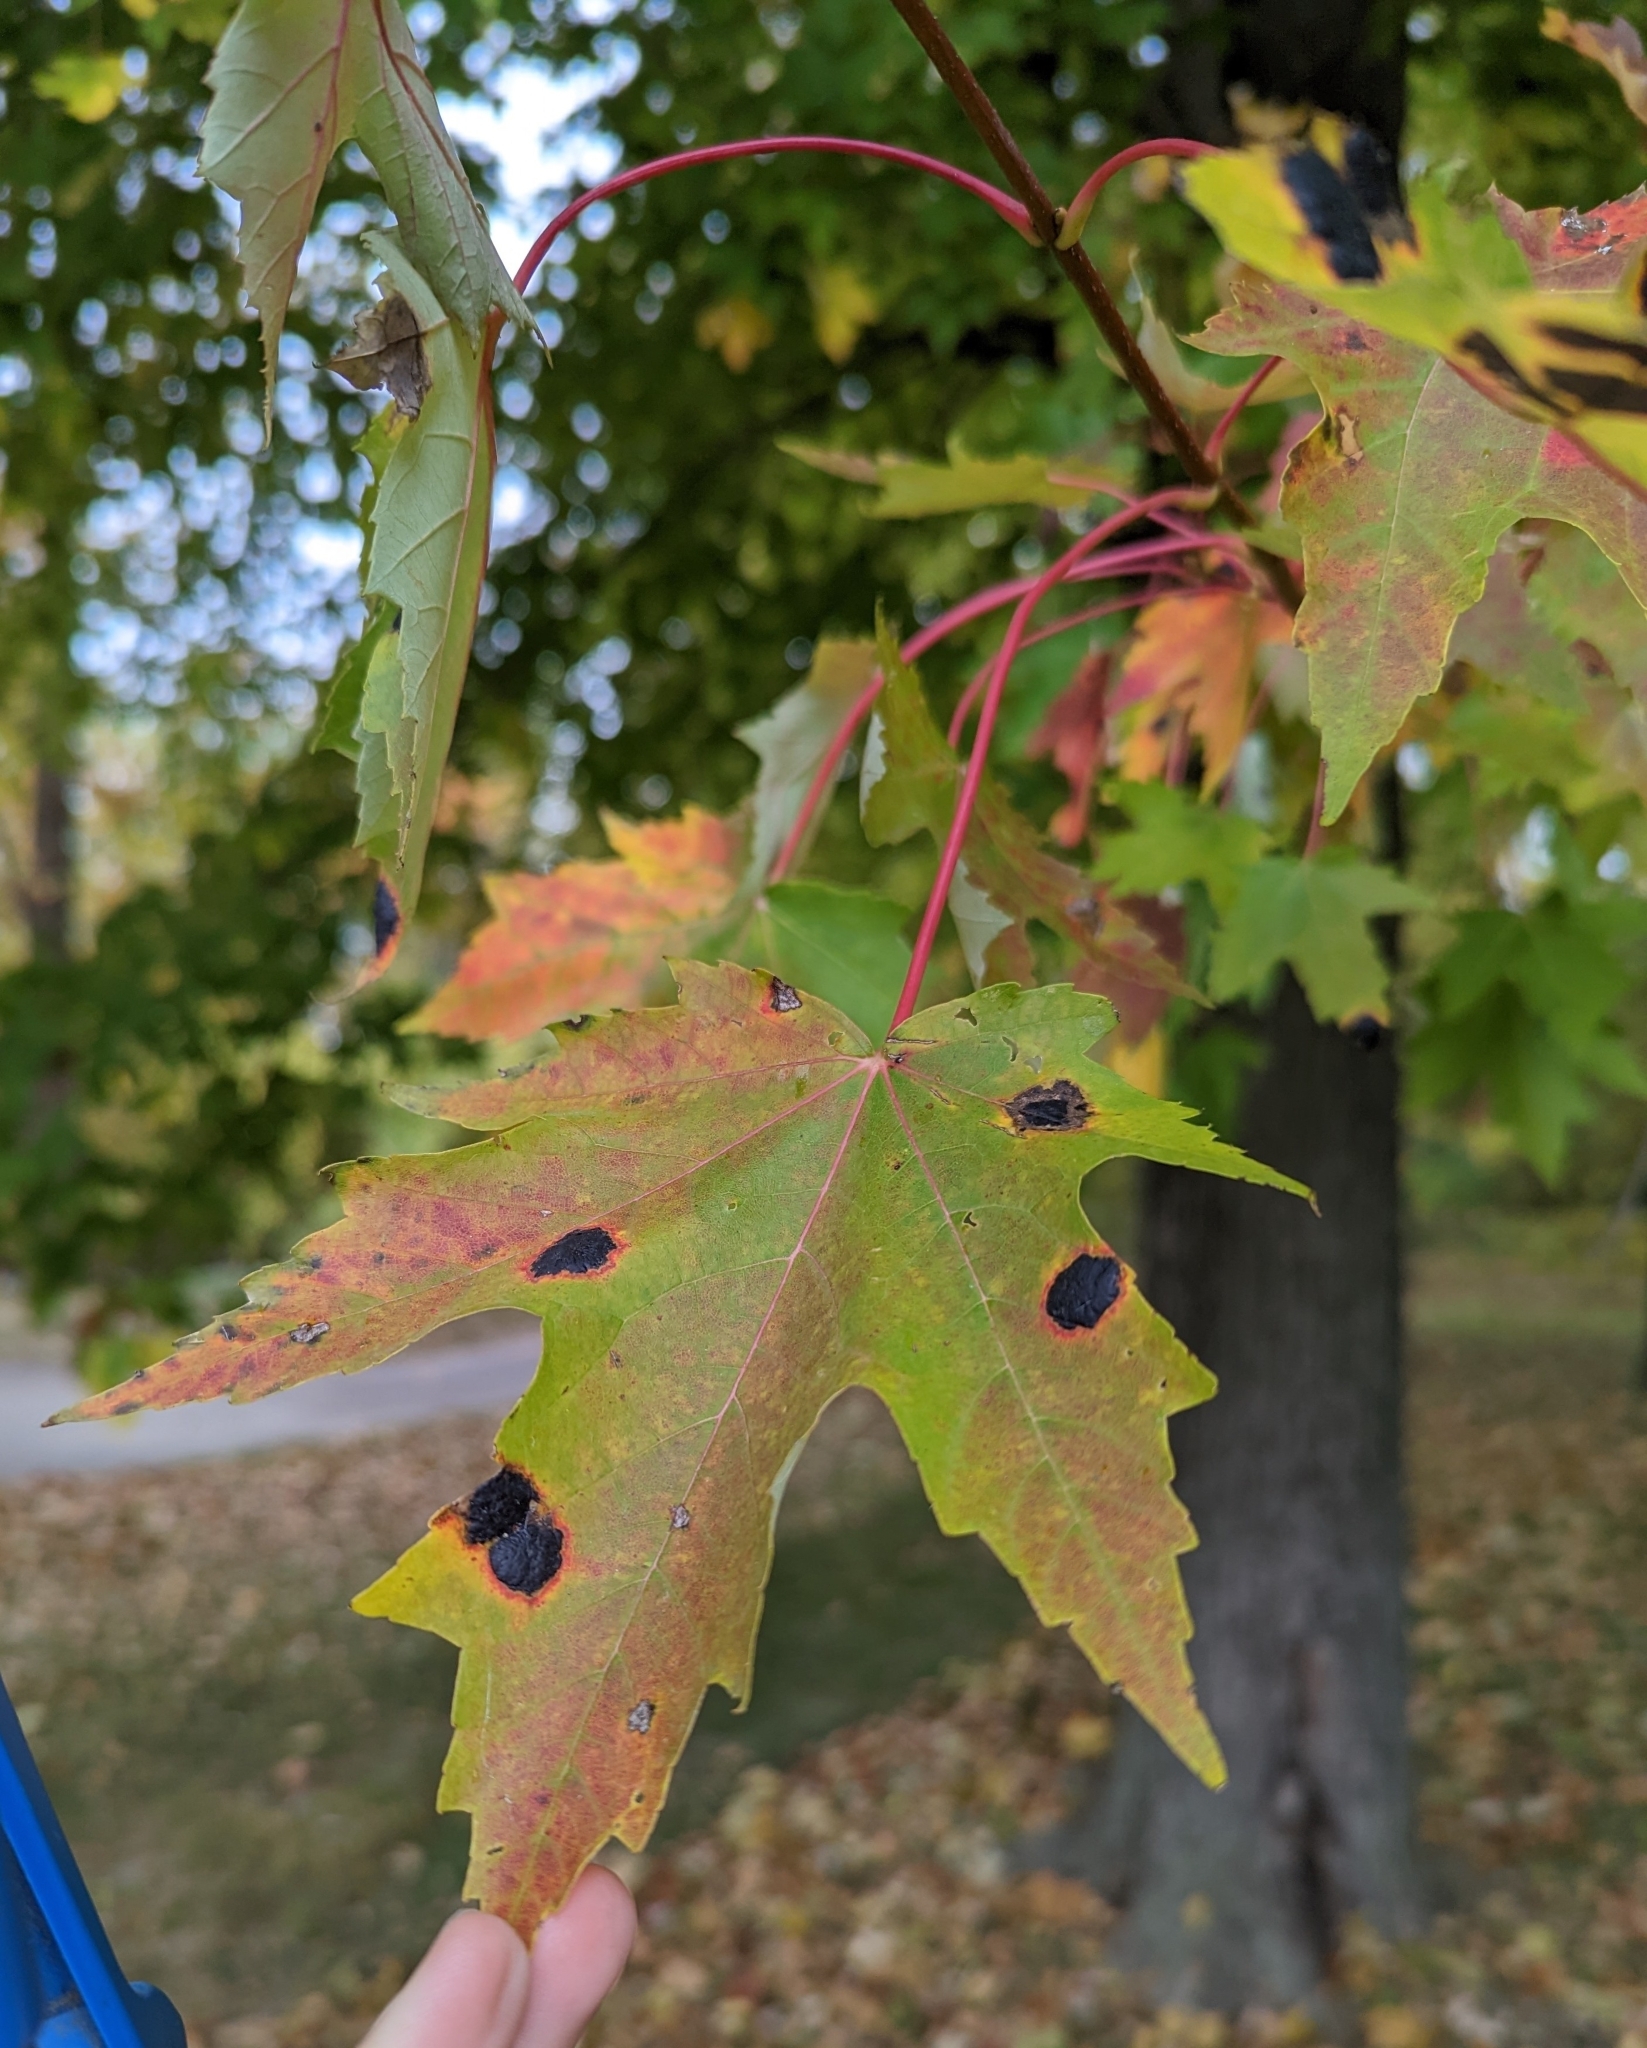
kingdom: Fungi
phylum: Ascomycota
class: Leotiomycetes
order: Rhytismatales
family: Rhytismataceae
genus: Rhytisma
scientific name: Rhytisma americanum
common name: American tar spot
